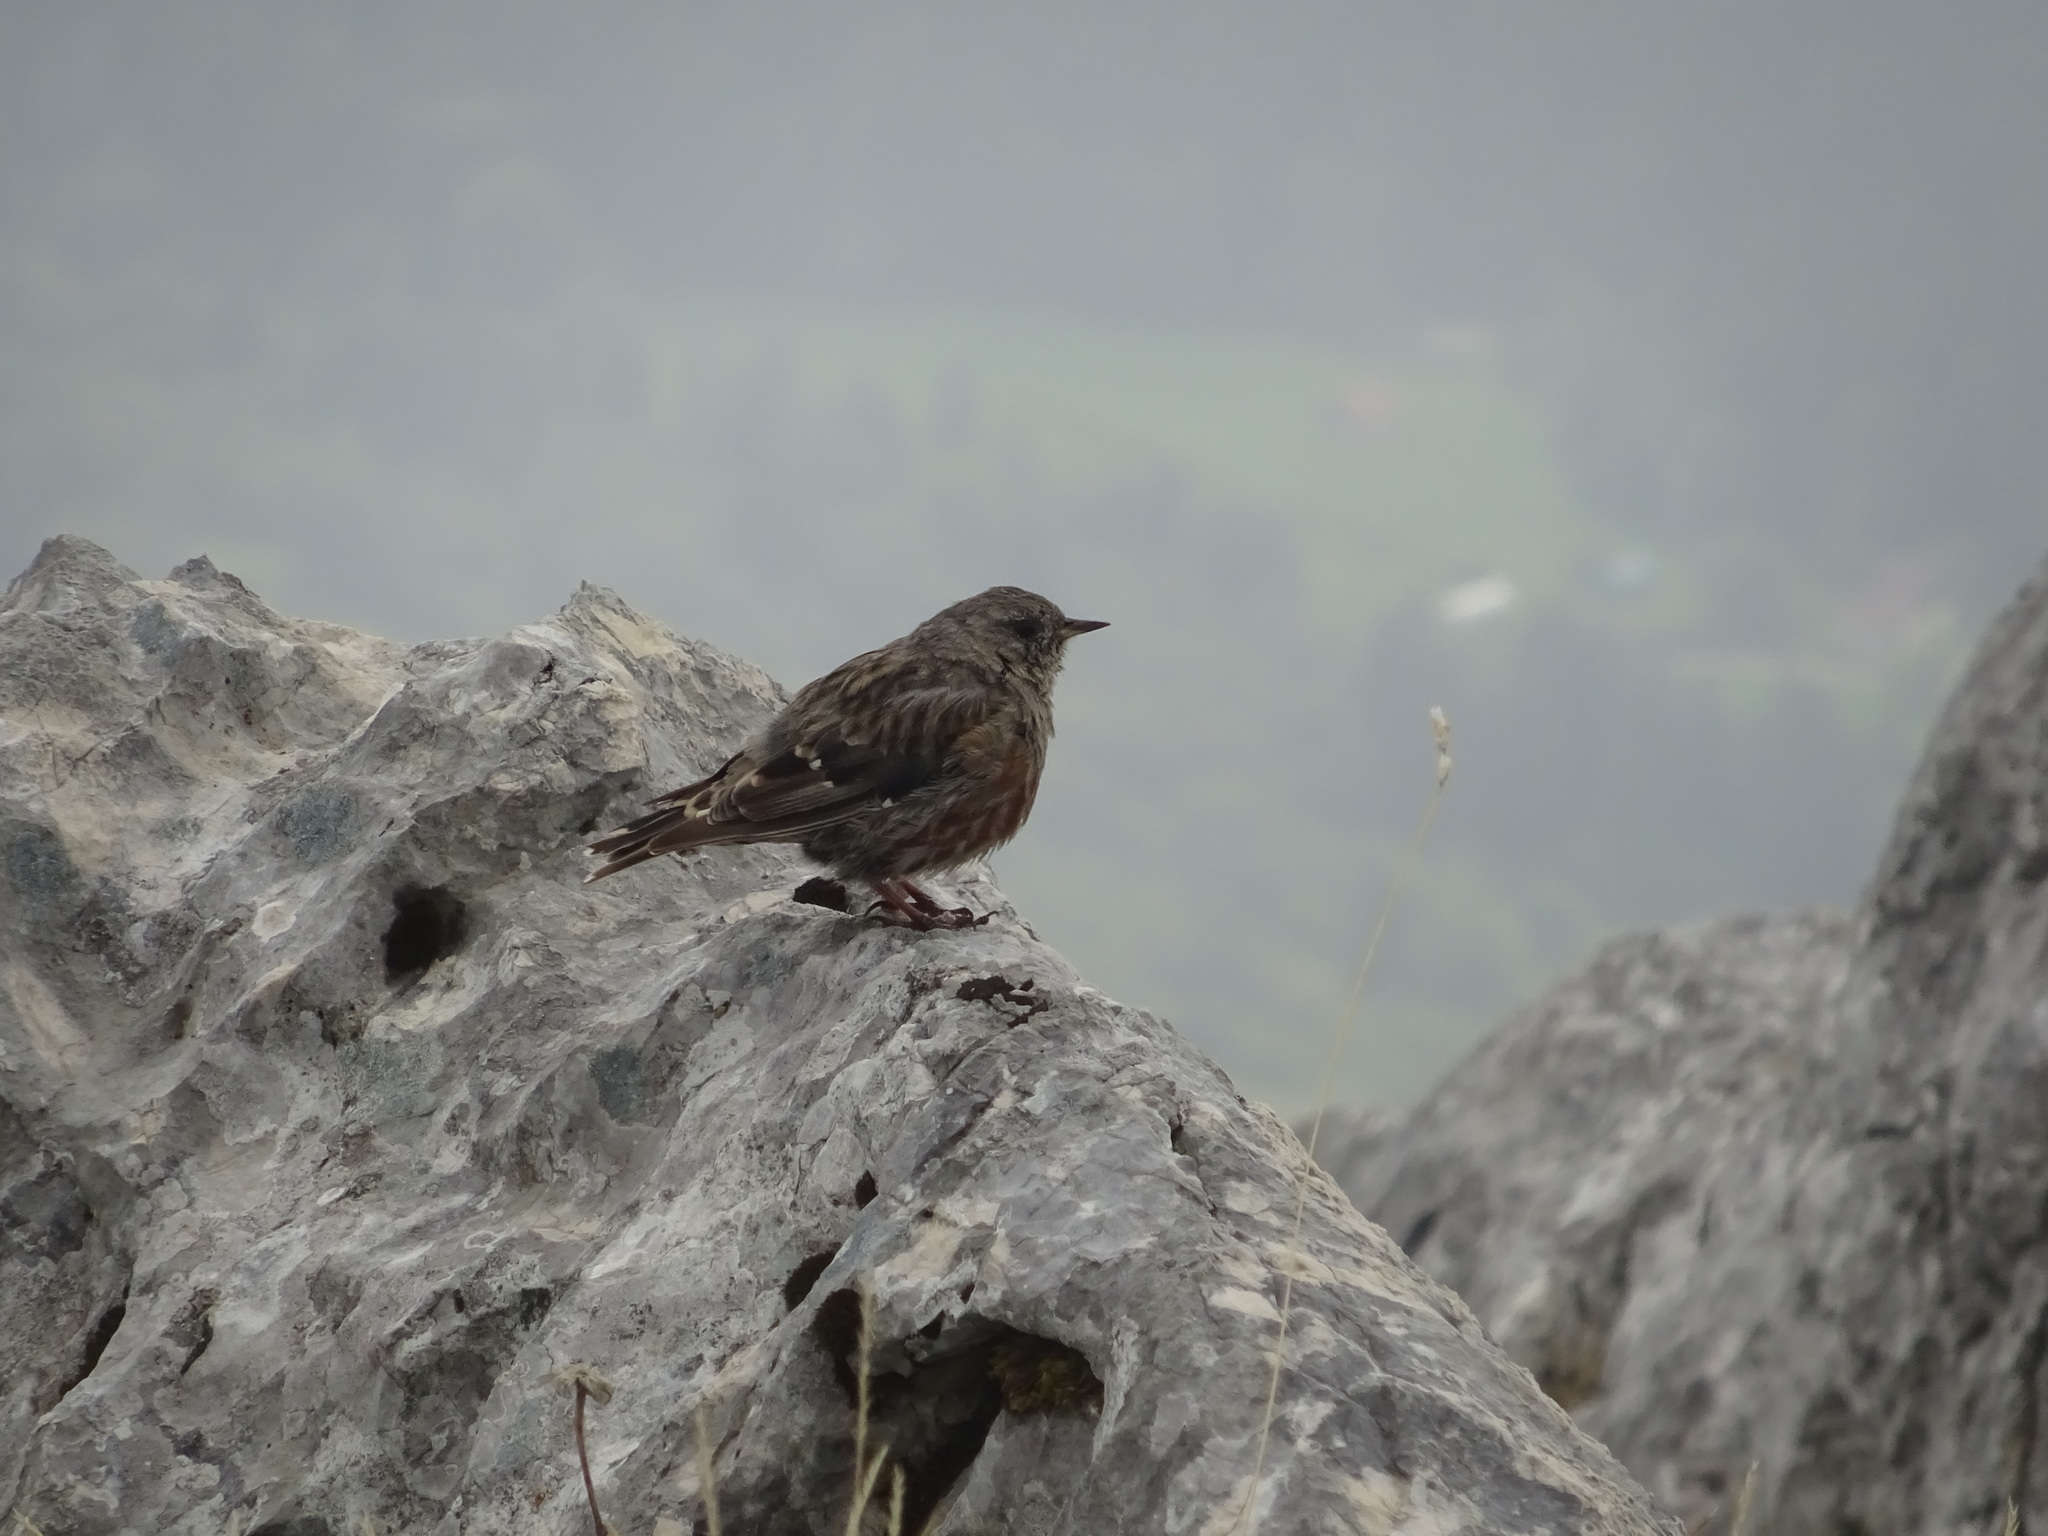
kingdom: Animalia
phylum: Chordata
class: Aves
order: Passeriformes
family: Prunellidae
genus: Prunella
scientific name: Prunella collaris
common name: Alpine accentor
